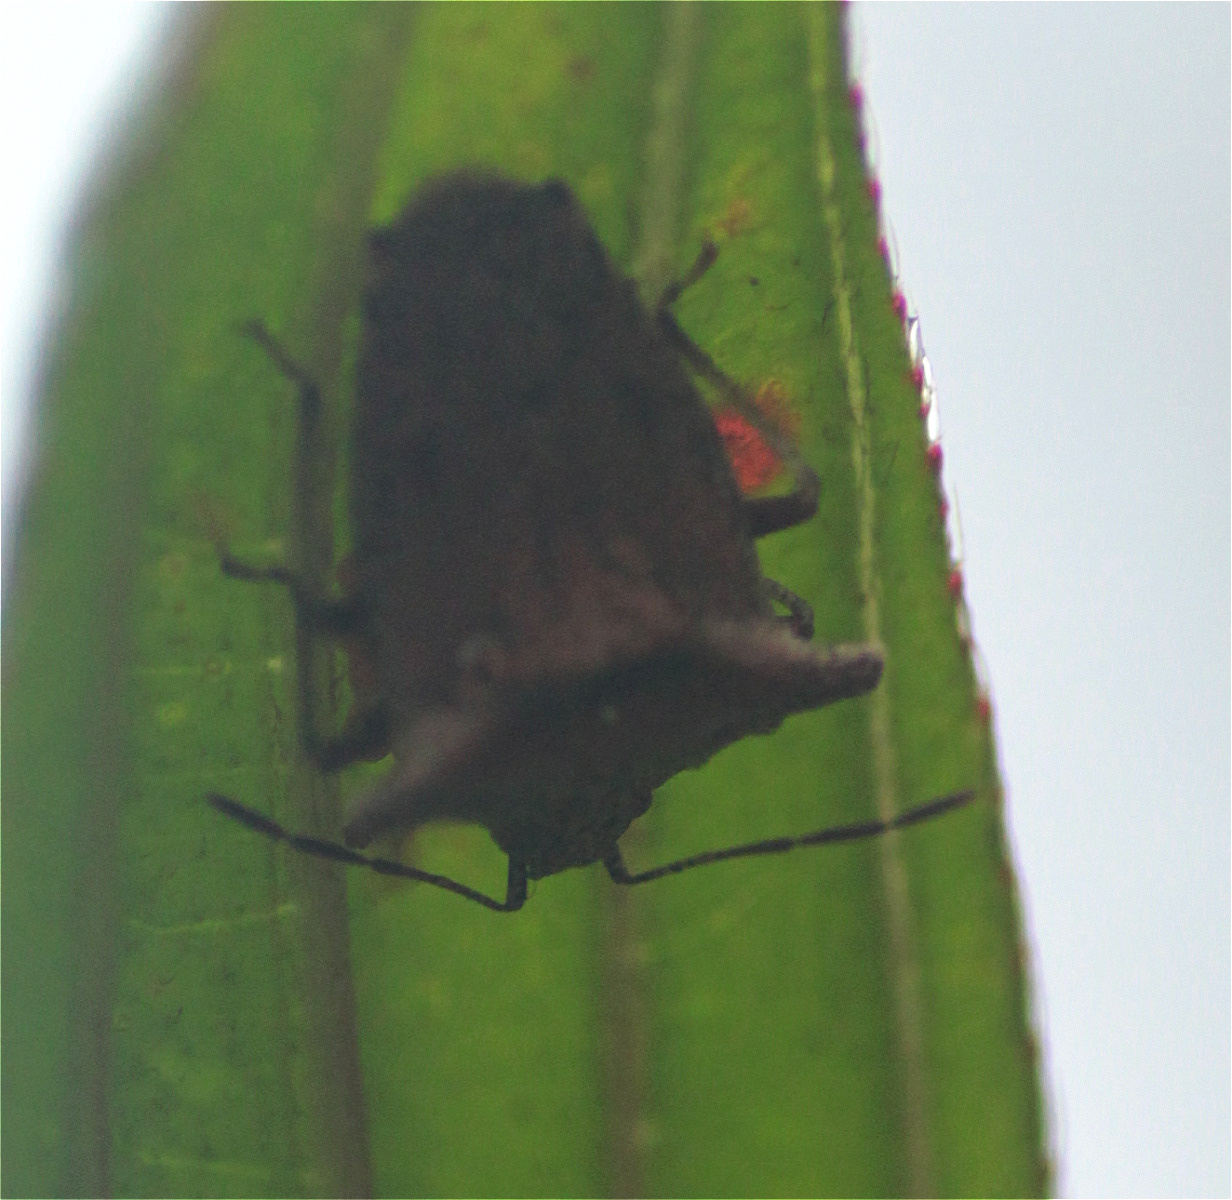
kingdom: Animalia
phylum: Arthropoda
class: Insecta
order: Hemiptera
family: Acanthosomatidae
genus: Bebaeus
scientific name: Bebaeus punctipes
